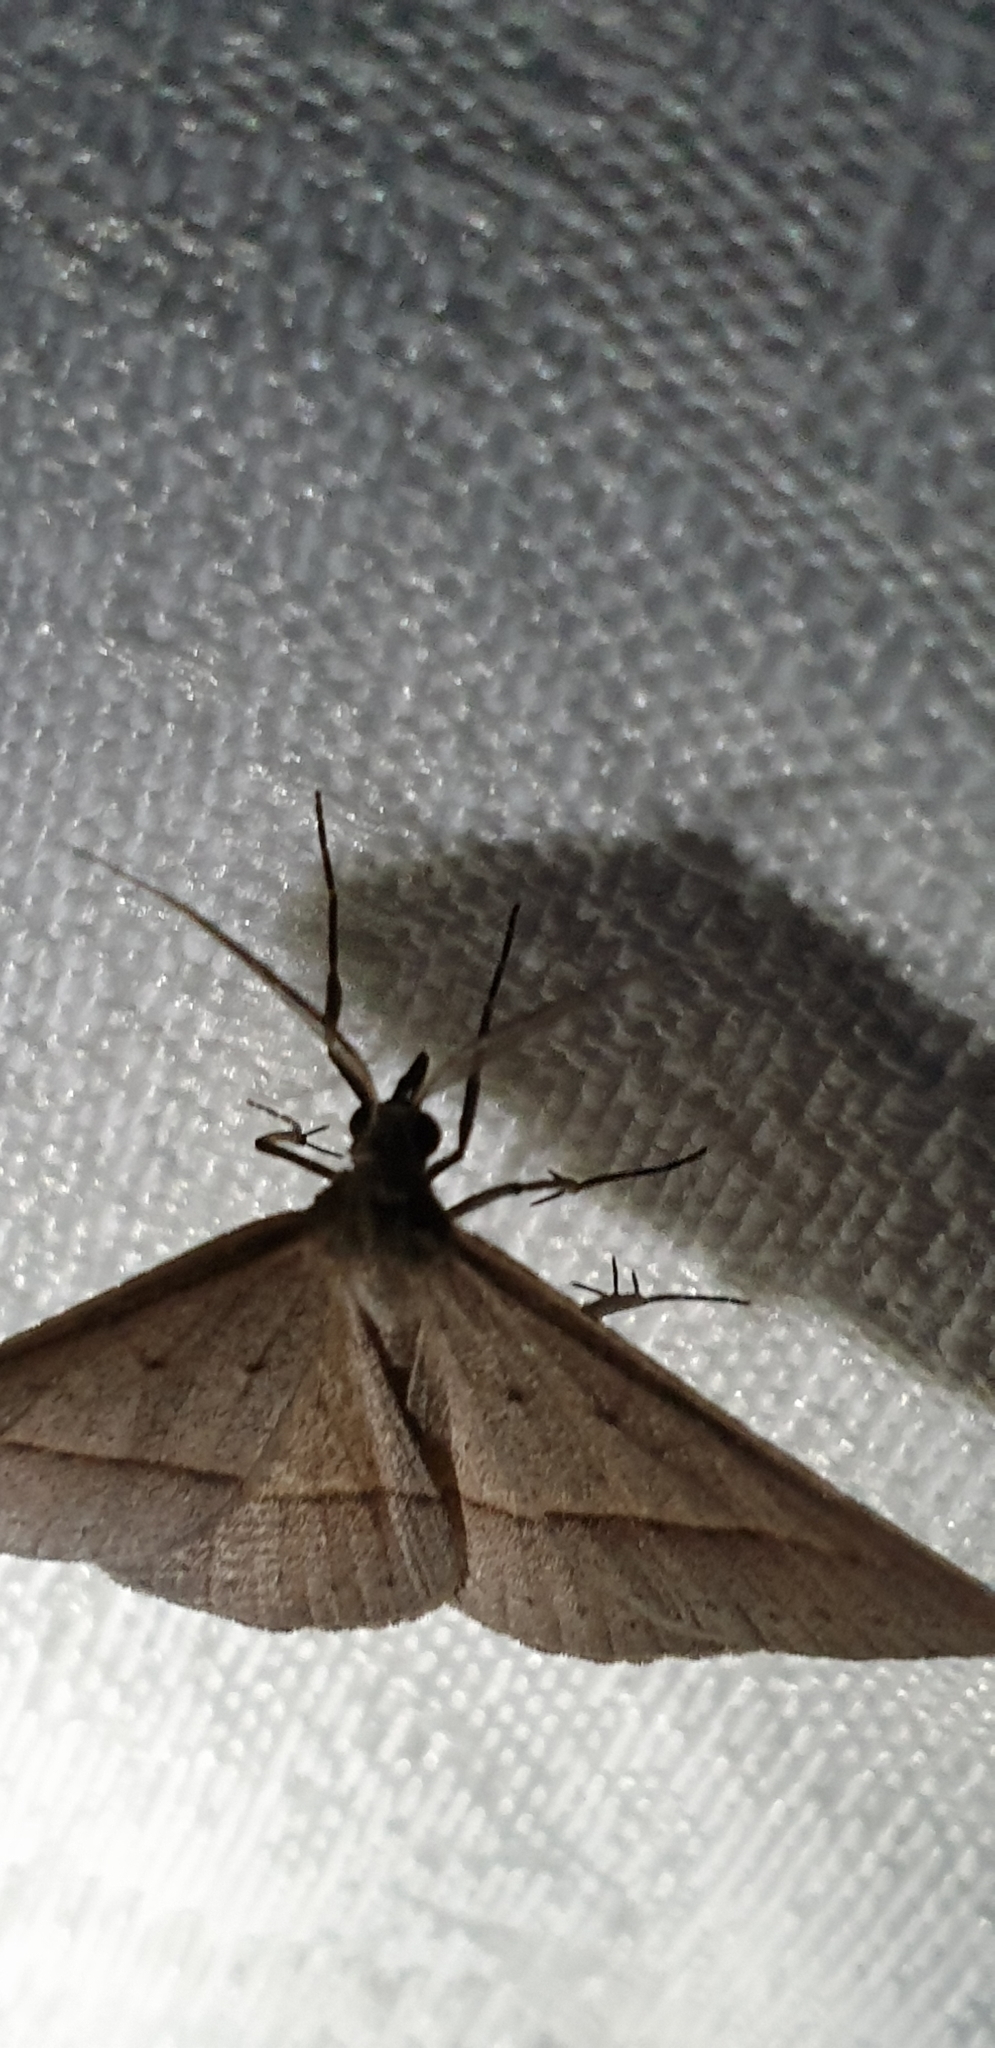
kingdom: Animalia
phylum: Arthropoda
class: Insecta
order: Lepidoptera
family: Geometridae
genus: Epidesmia
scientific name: Epidesmia tryxaria
